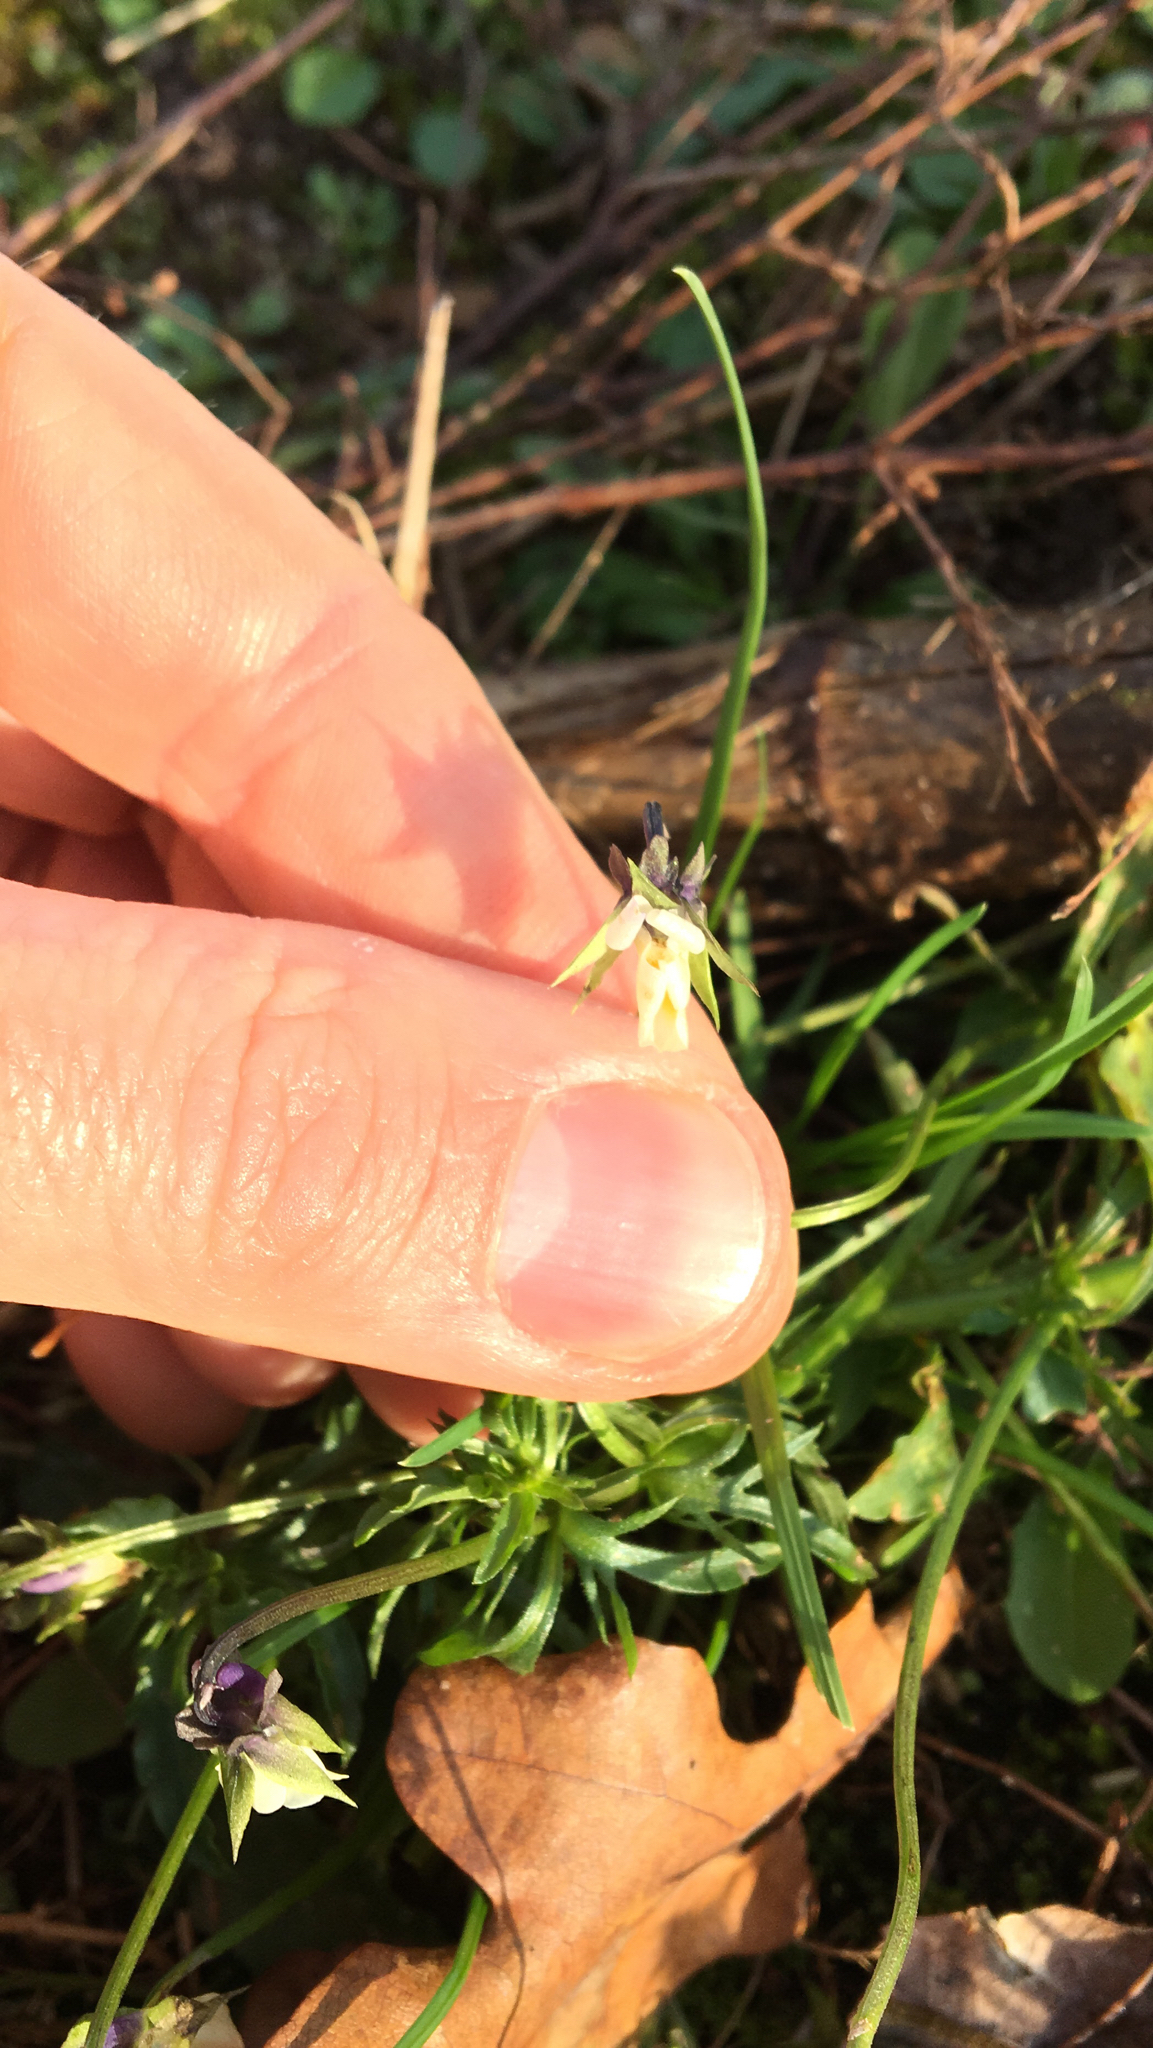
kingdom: Plantae
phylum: Tracheophyta
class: Magnoliopsida
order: Malpighiales
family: Violaceae
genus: Viola
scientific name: Viola arvensis
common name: Field pansy
